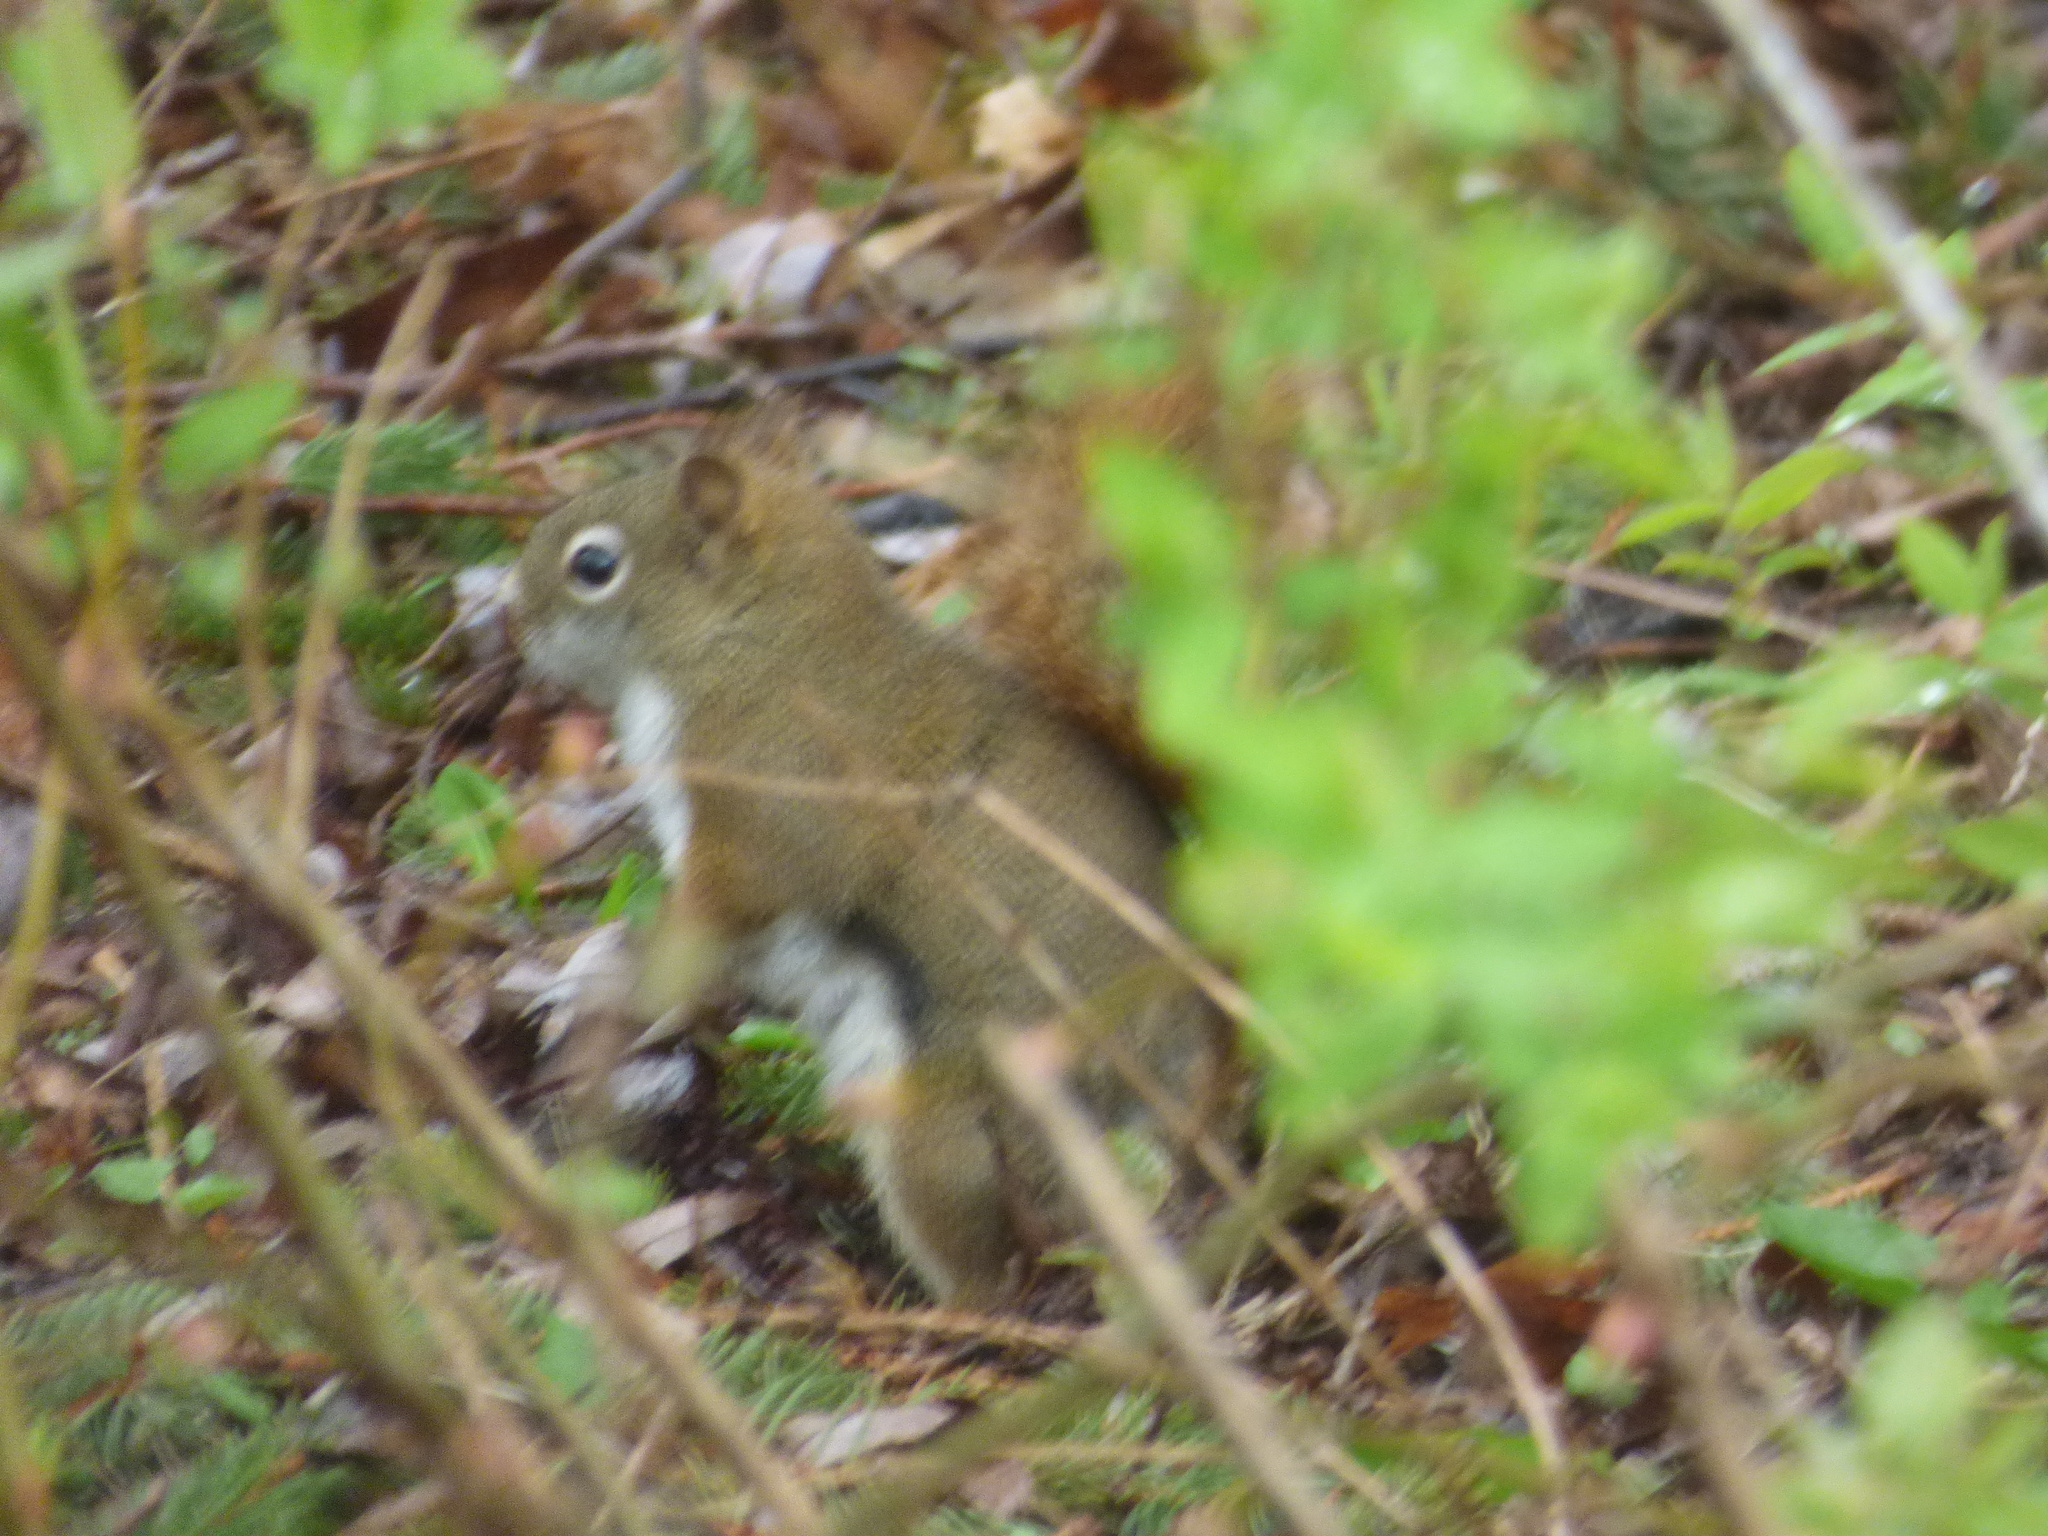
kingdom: Animalia
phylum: Chordata
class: Mammalia
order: Rodentia
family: Sciuridae
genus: Tamiasciurus
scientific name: Tamiasciurus hudsonicus
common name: Red squirrel
